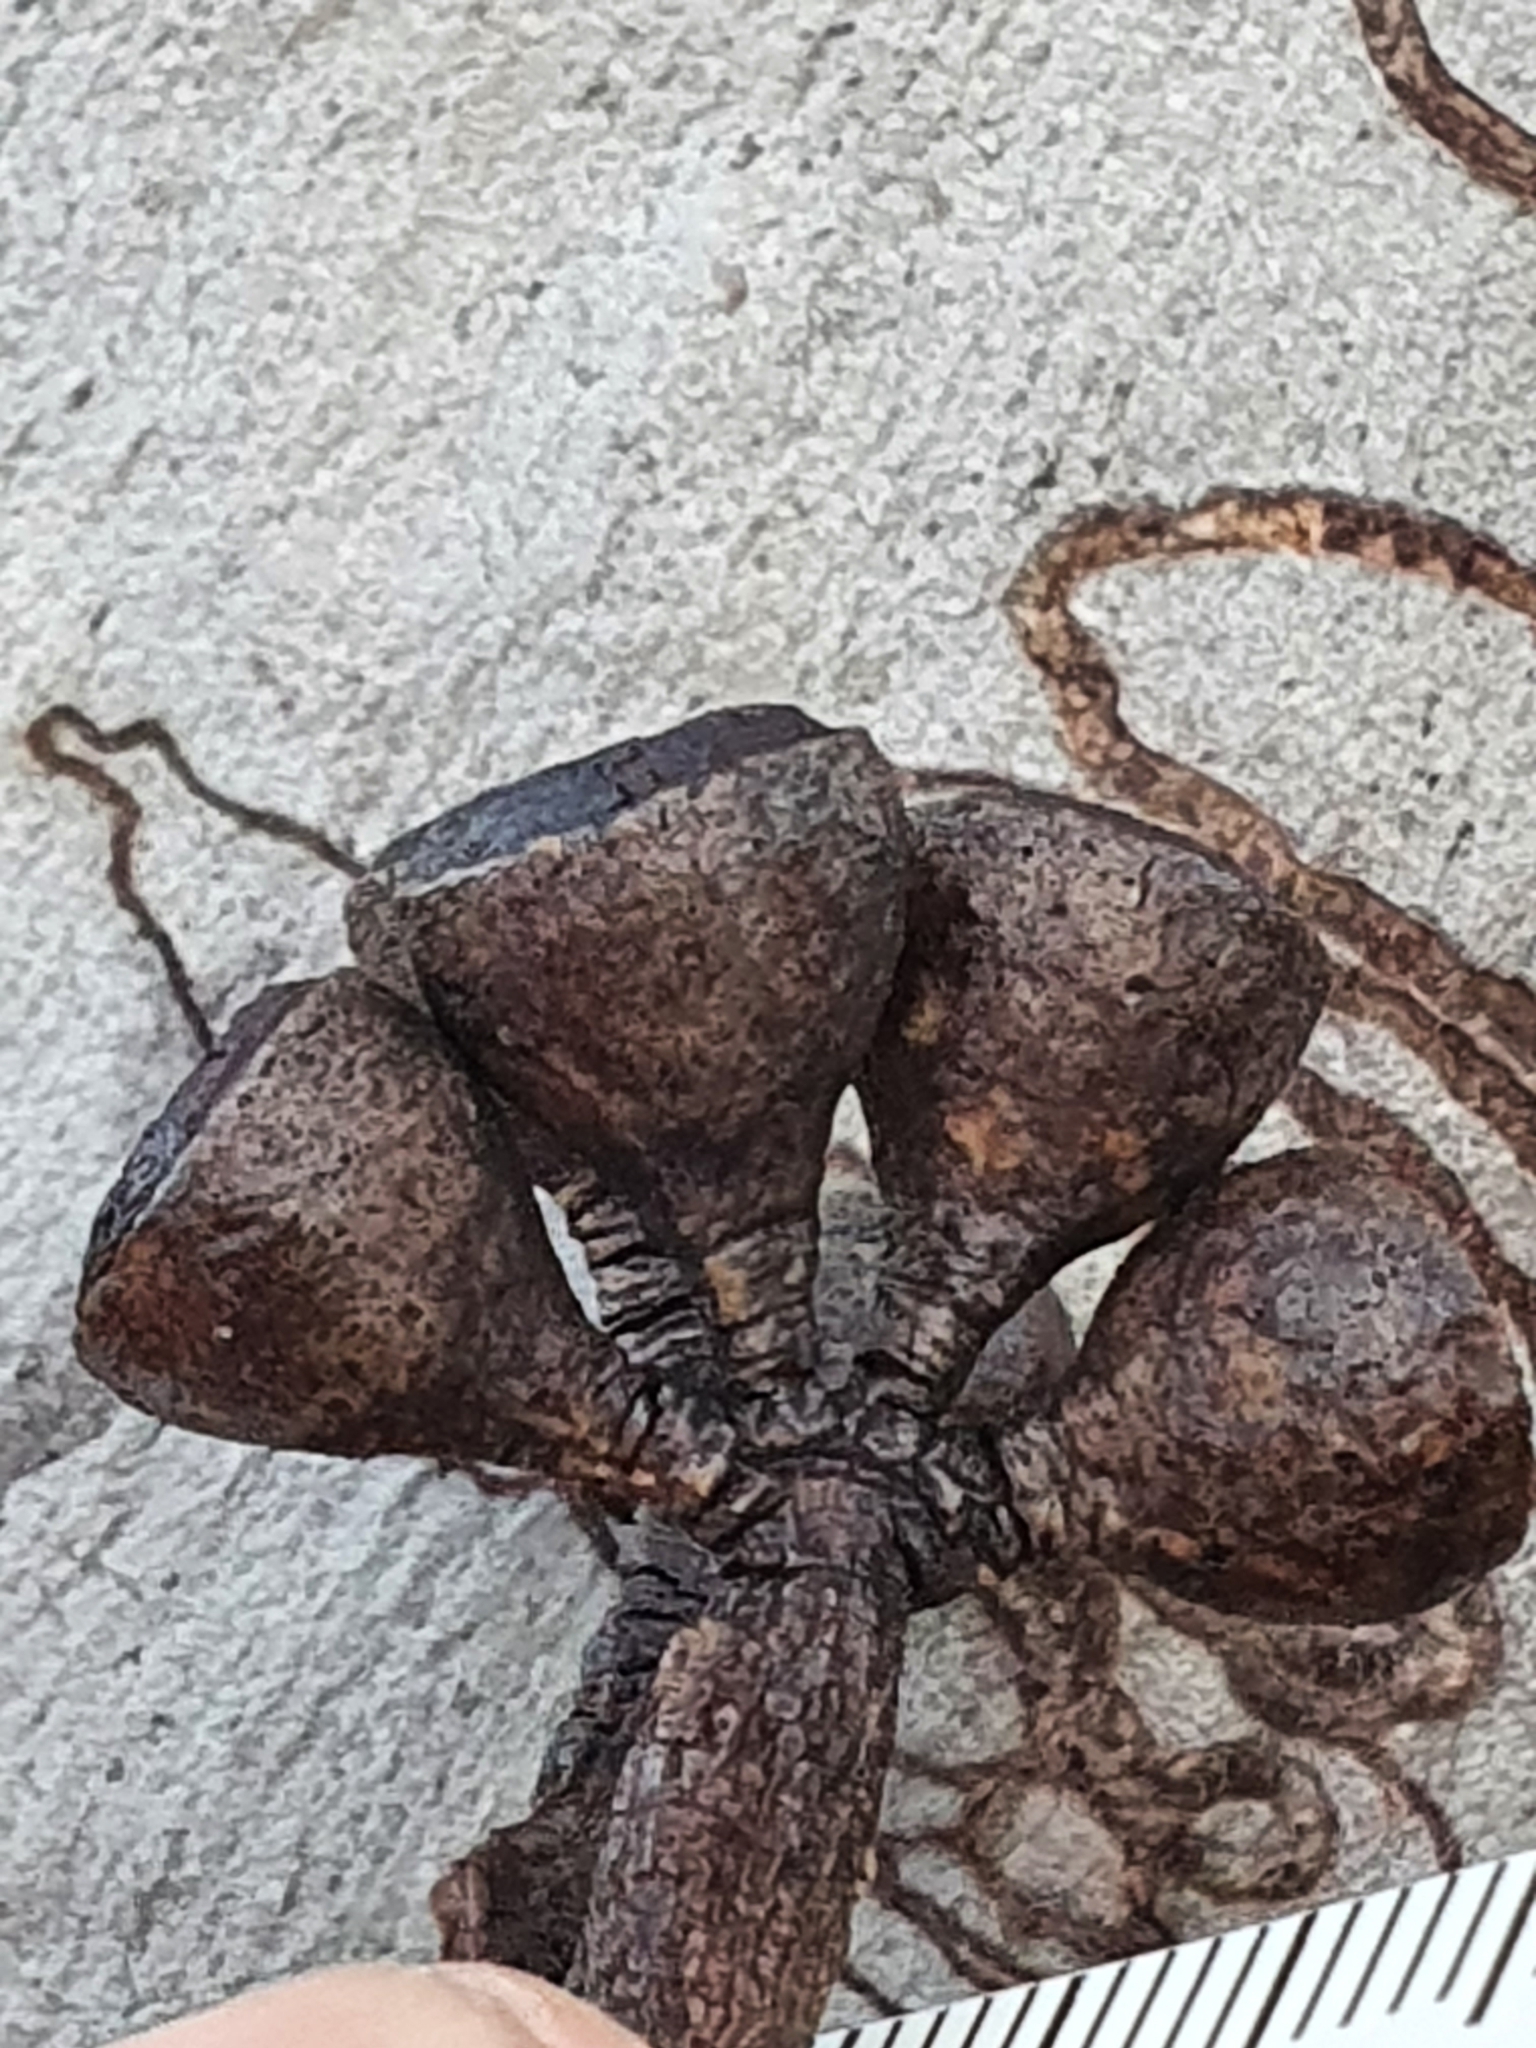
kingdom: Plantae
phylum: Tracheophyta
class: Magnoliopsida
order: Myrtales
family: Myrtaceae
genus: Eucalyptus
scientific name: Eucalyptus haemastoma
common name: Scribbly-gum
